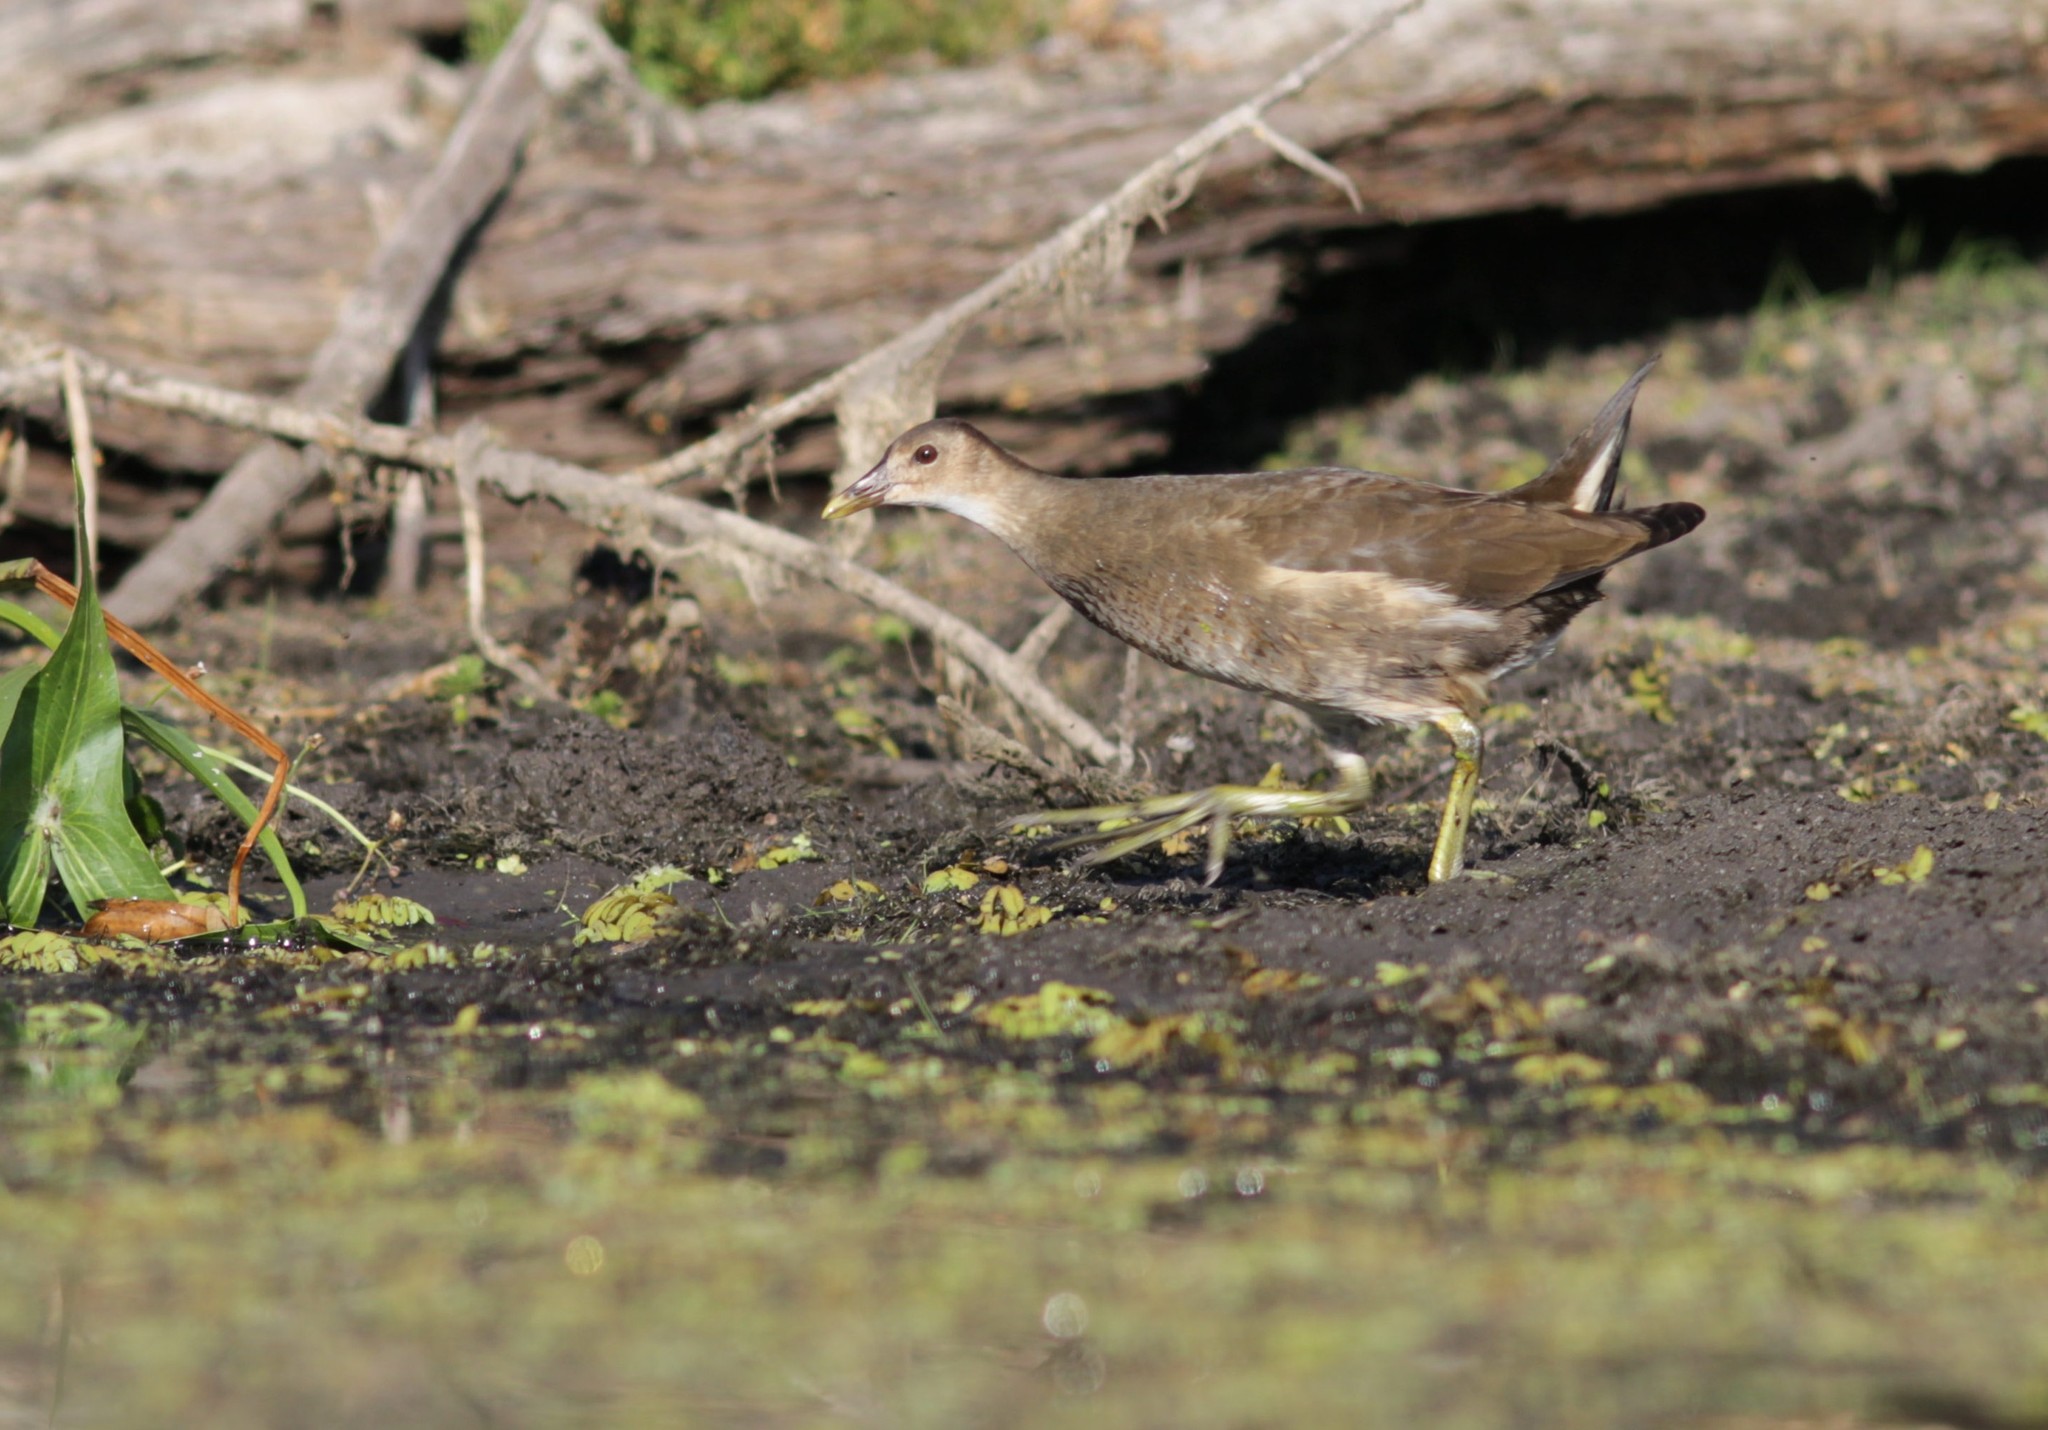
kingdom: Animalia
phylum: Chordata
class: Aves
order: Gruiformes
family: Rallidae
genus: Gallinula
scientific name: Gallinula chloropus
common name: Common moorhen
